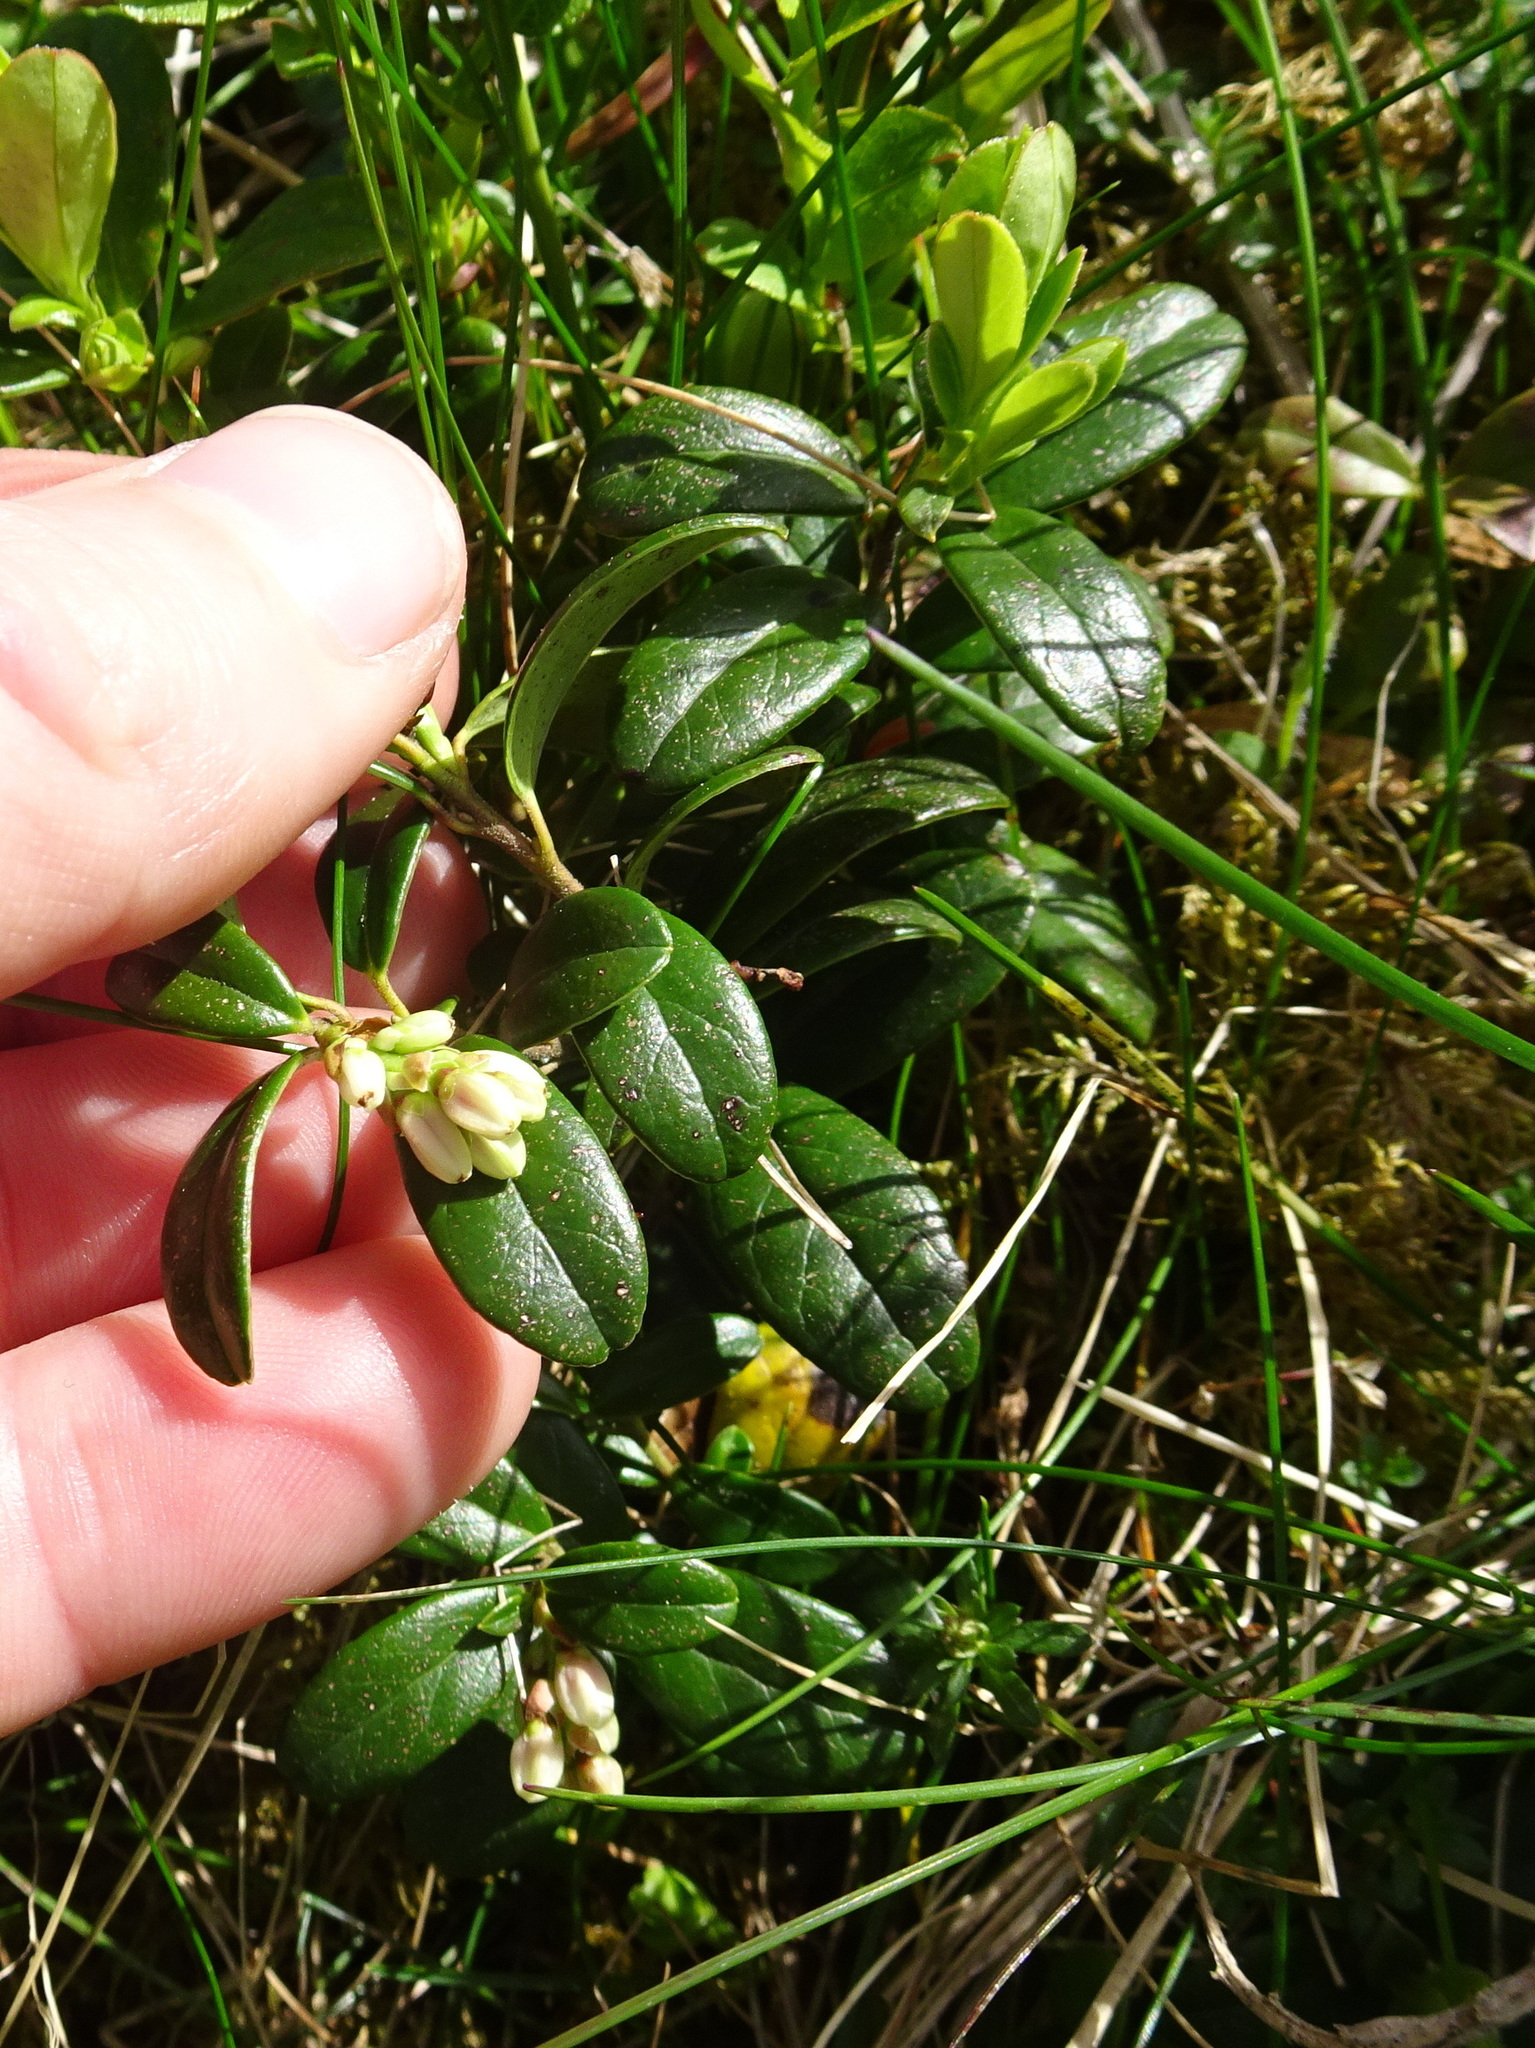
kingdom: Plantae
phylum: Tracheophyta
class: Magnoliopsida
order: Ericales
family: Ericaceae
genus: Vaccinium
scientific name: Vaccinium vitis-idaea
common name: Cowberry
